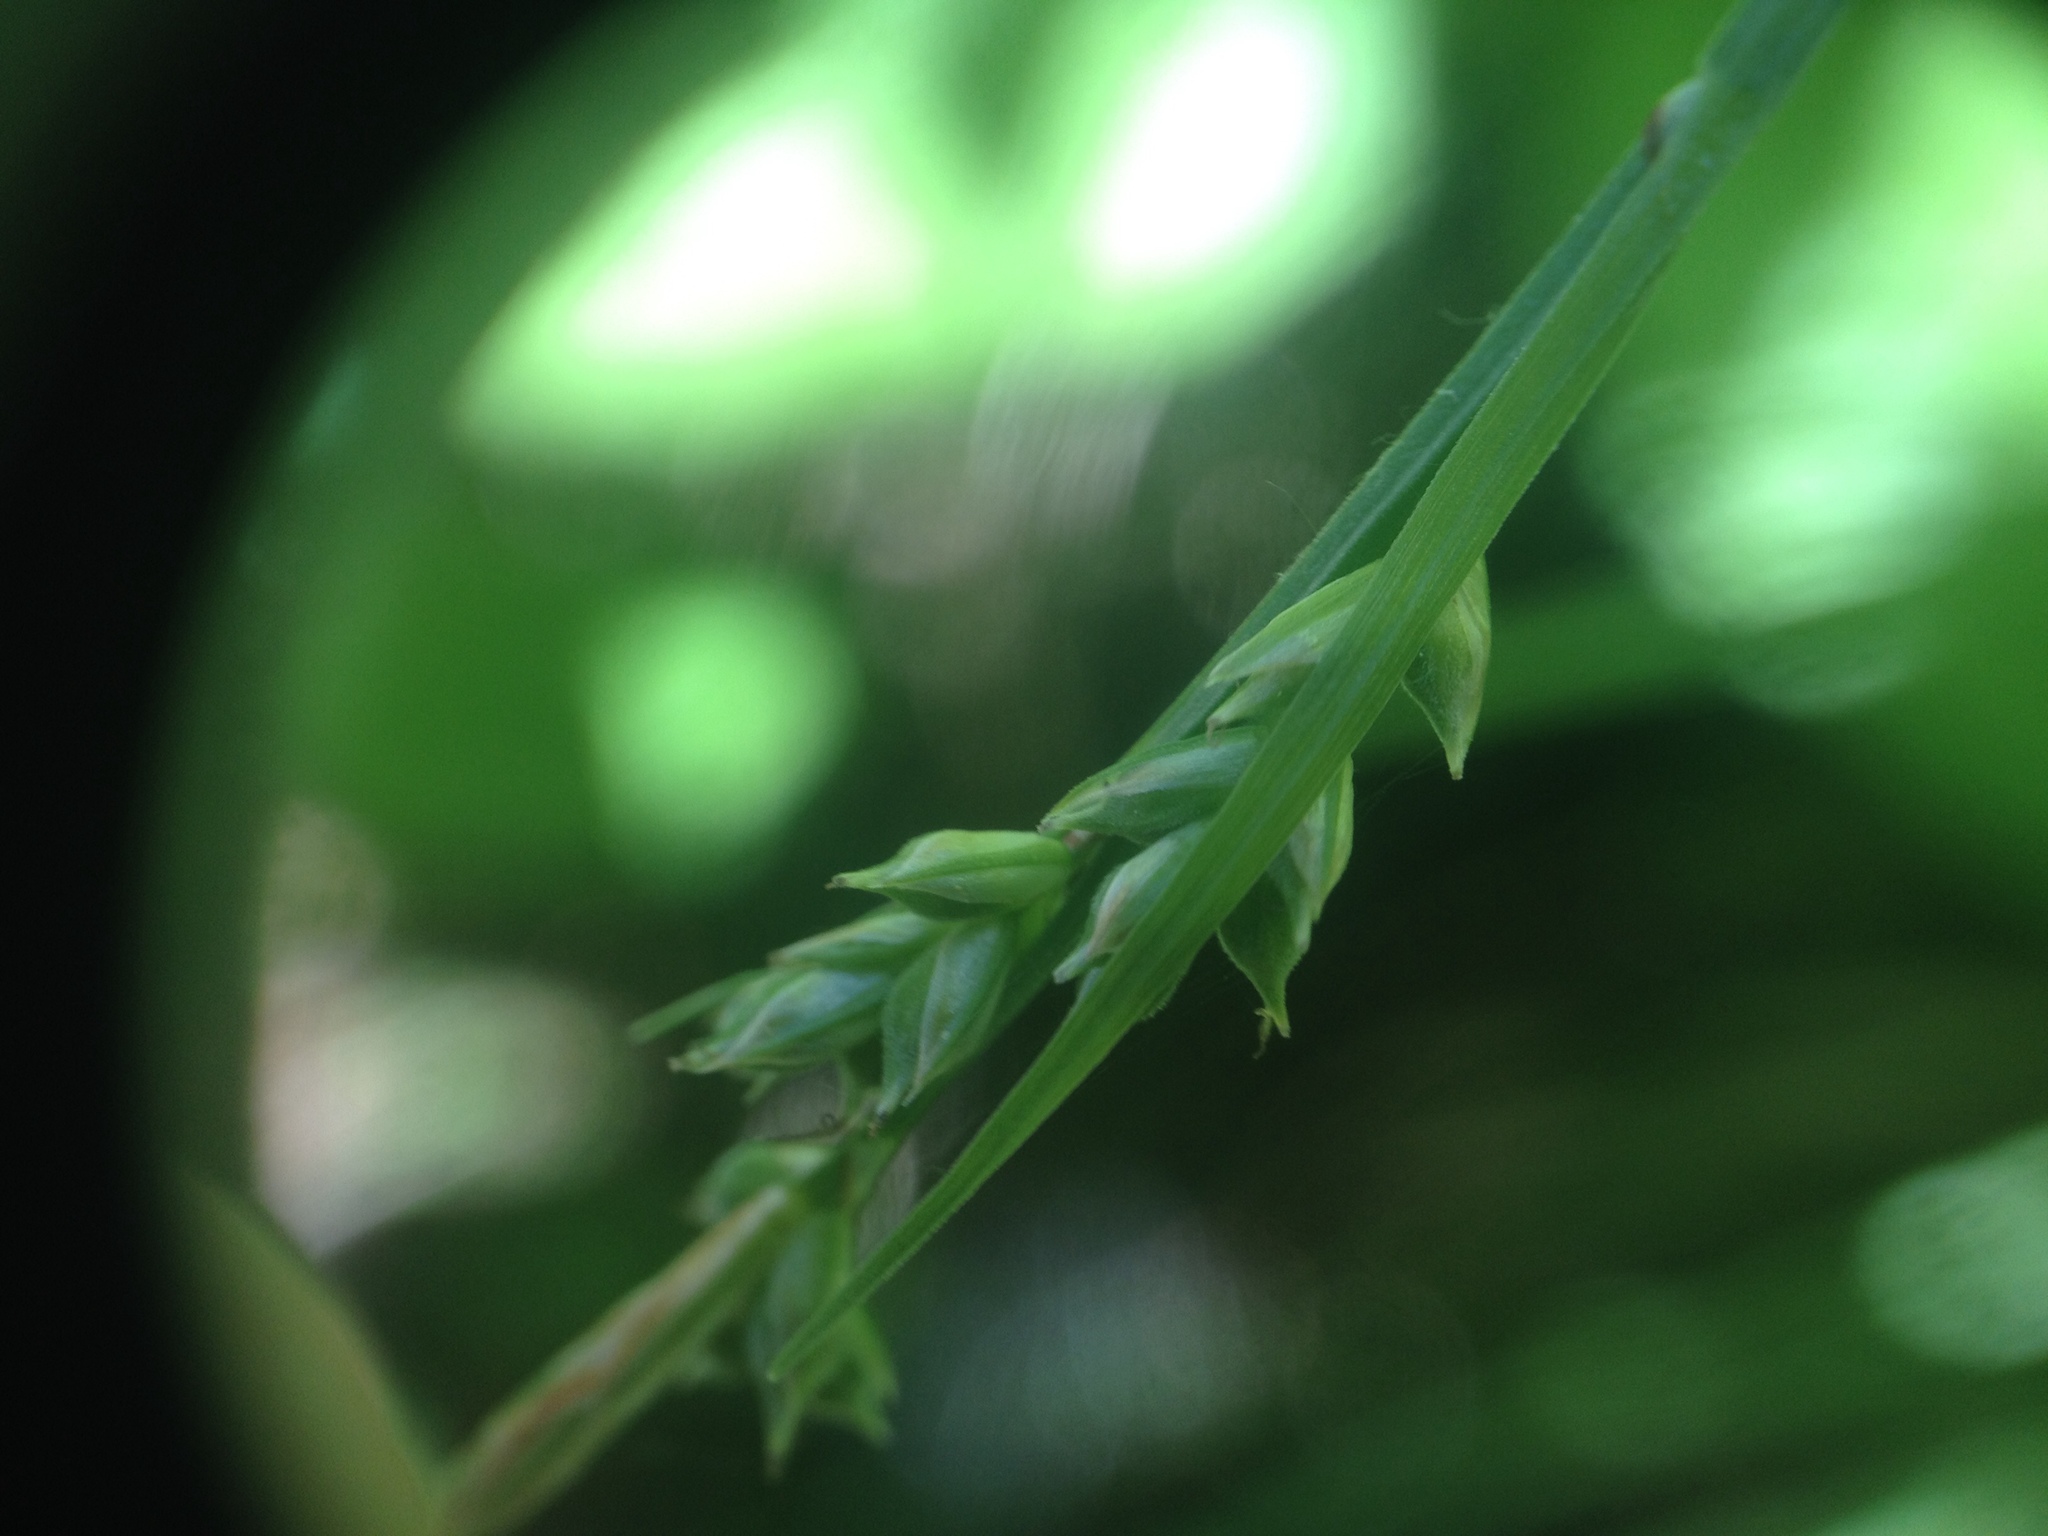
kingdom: Plantae
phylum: Tracheophyta
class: Liliopsida
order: Poales
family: Cyperaceae
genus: Carex
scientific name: Carex communis
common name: Colonial oak sedge
